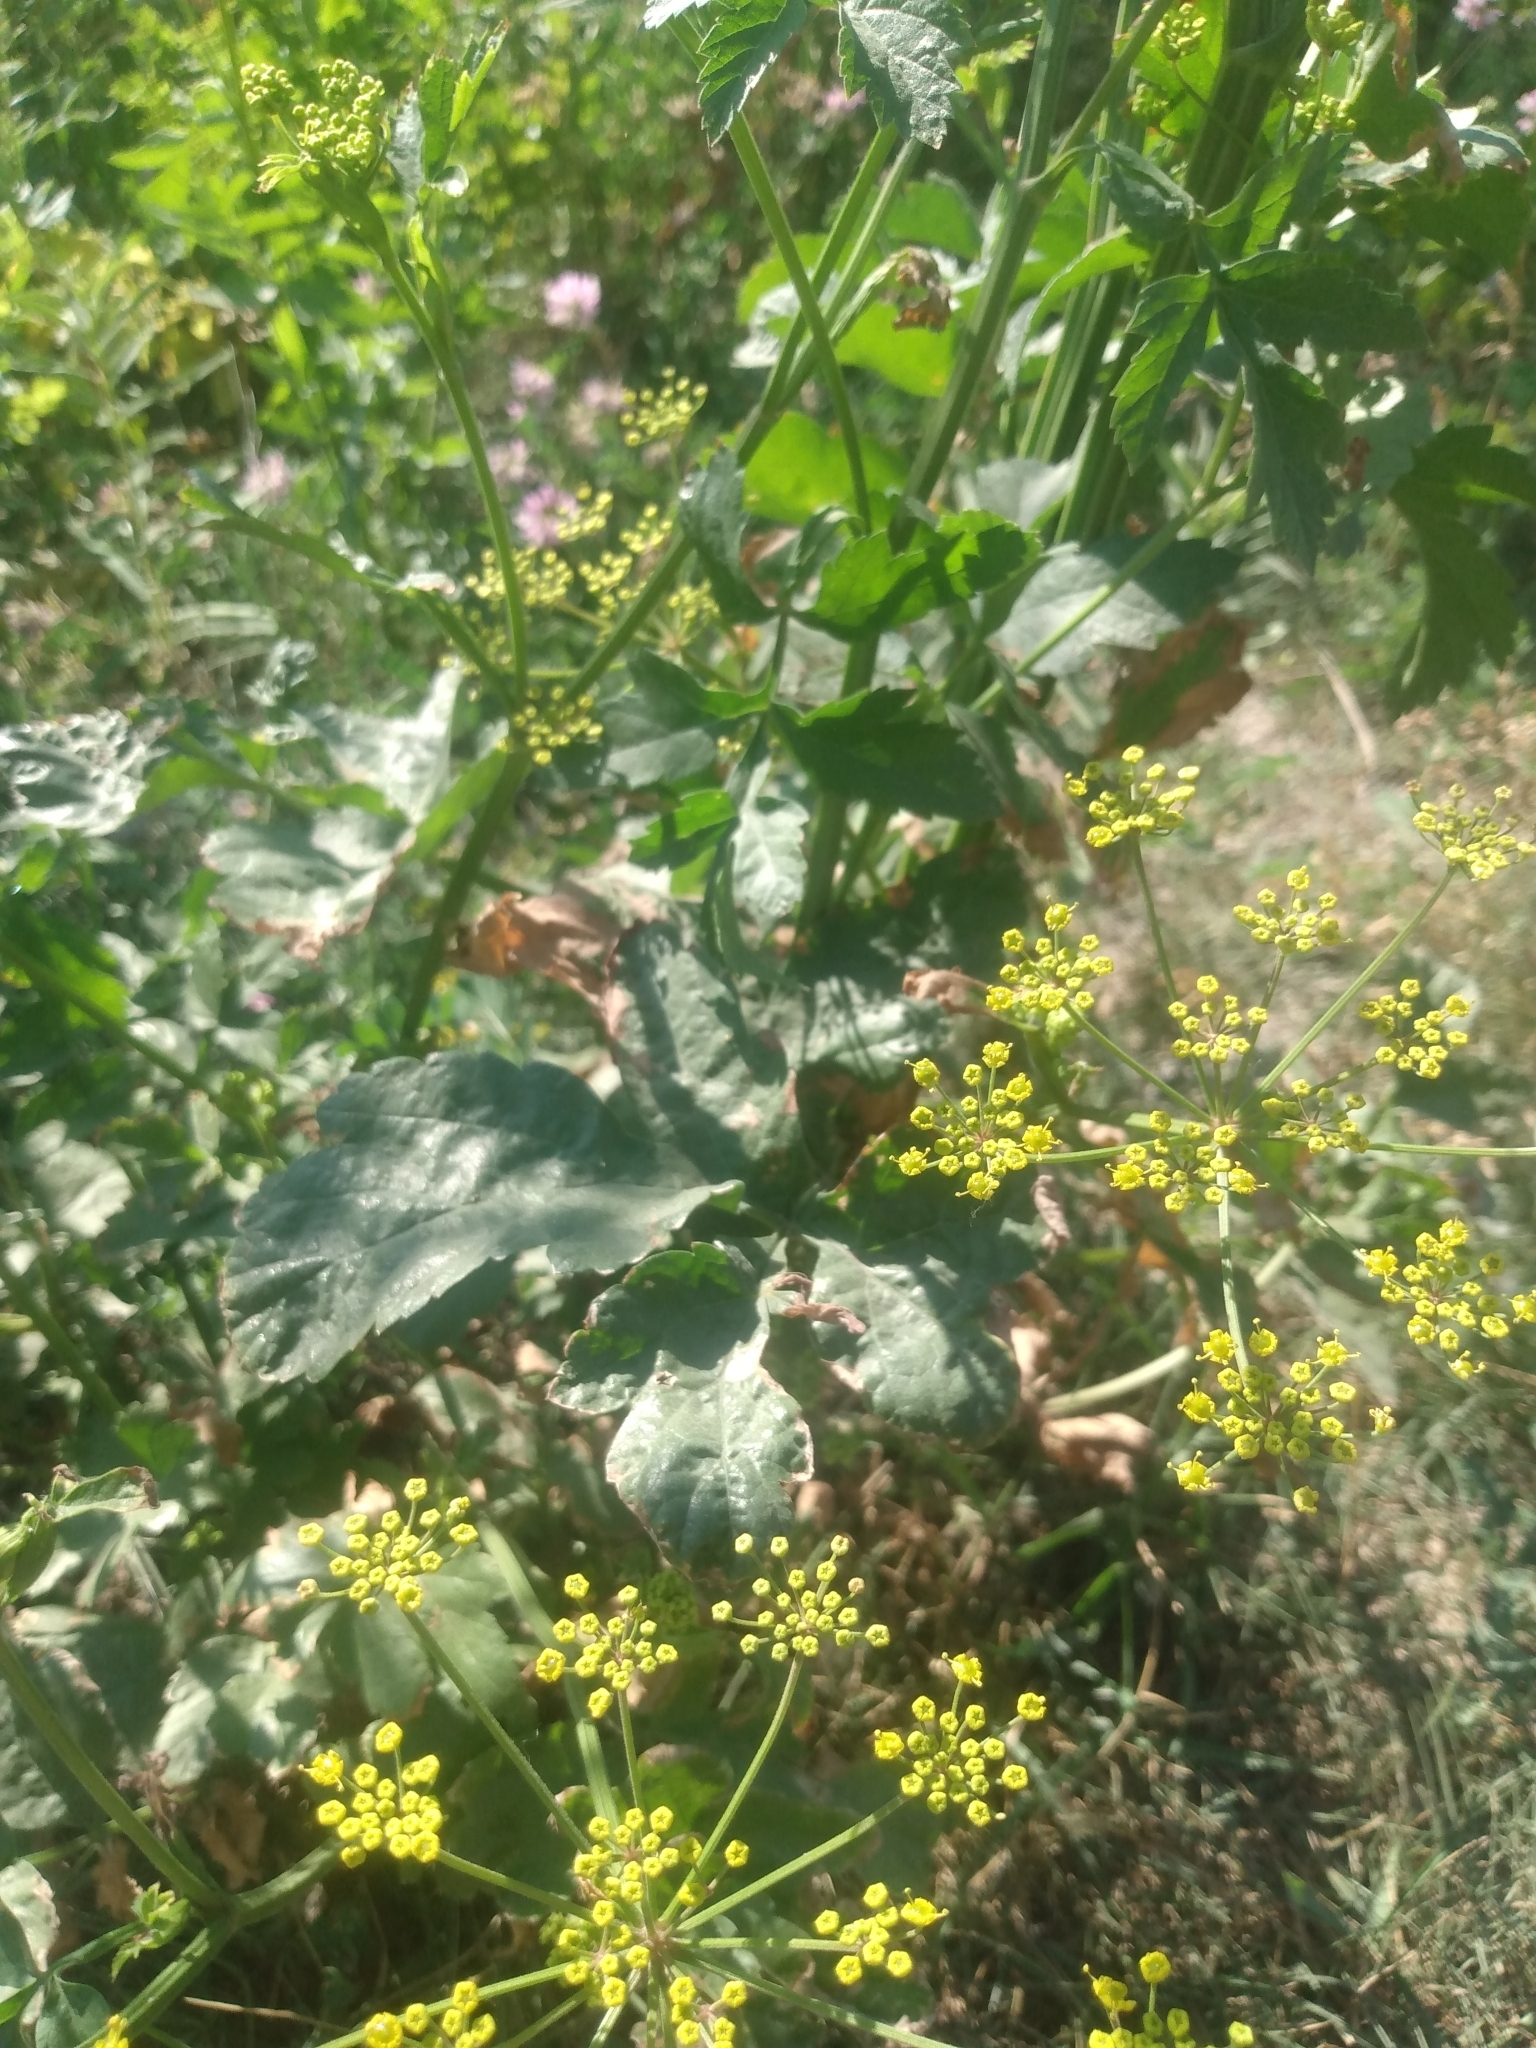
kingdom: Plantae
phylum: Tracheophyta
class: Magnoliopsida
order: Apiales
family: Apiaceae
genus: Pastinaca
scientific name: Pastinaca sativa
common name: Wild parsnip
